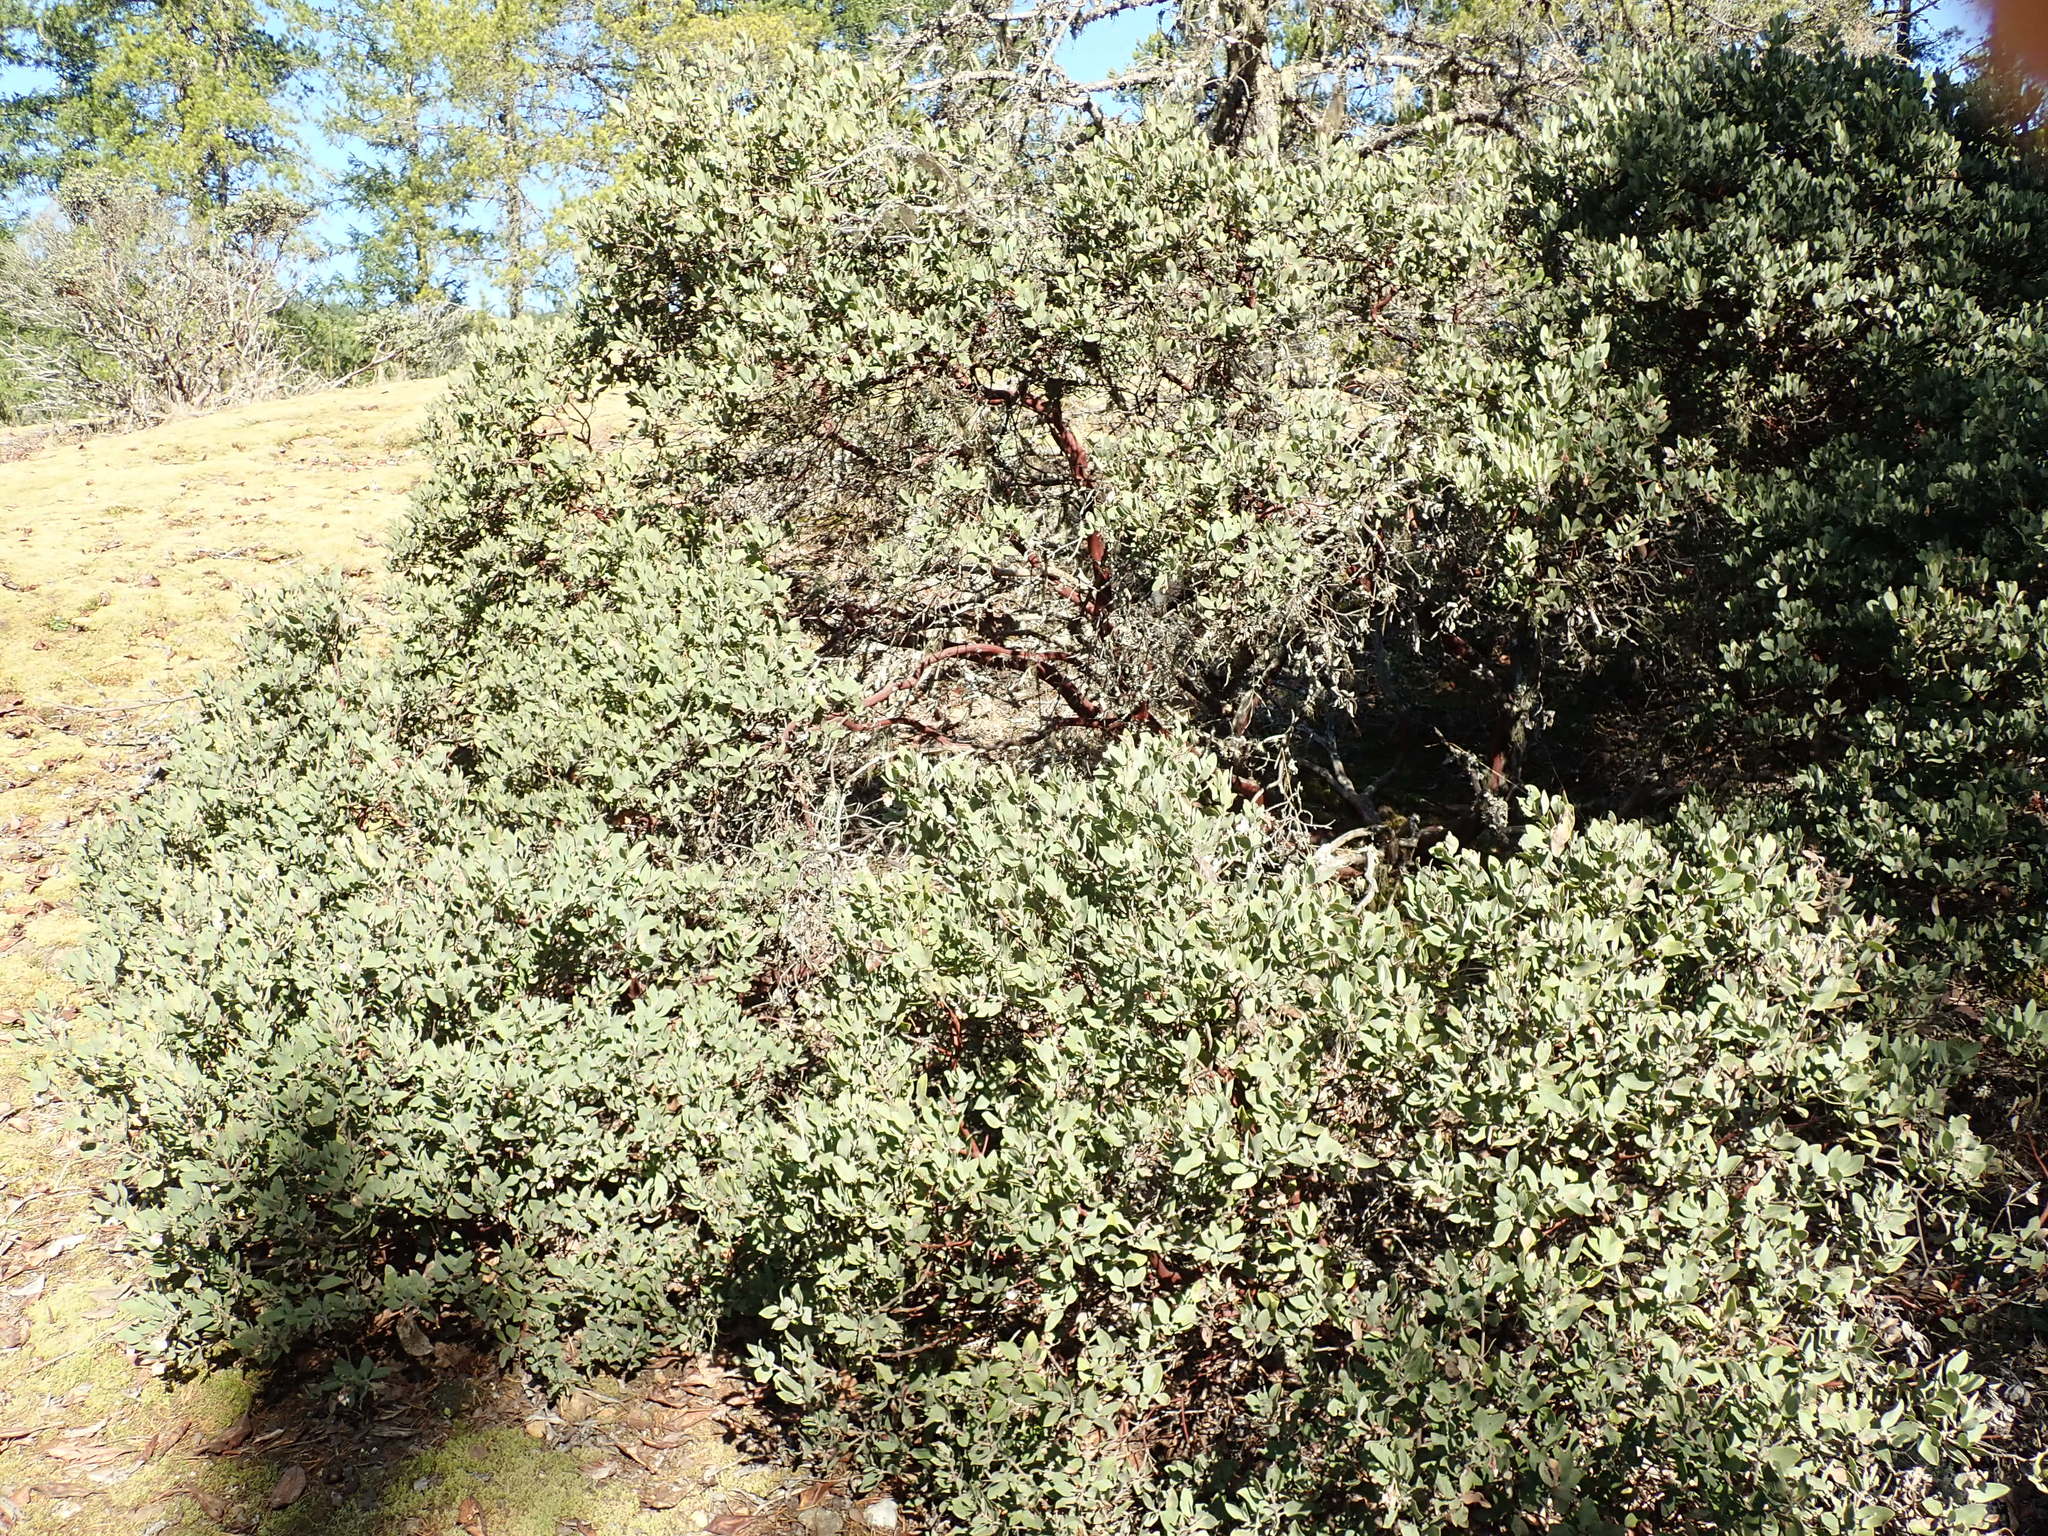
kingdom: Plantae
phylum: Tracheophyta
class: Magnoliopsida
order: Ericales
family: Ericaceae
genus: Arctostaphylos
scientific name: Arctostaphylos columbiana
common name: Bristly bearberry
